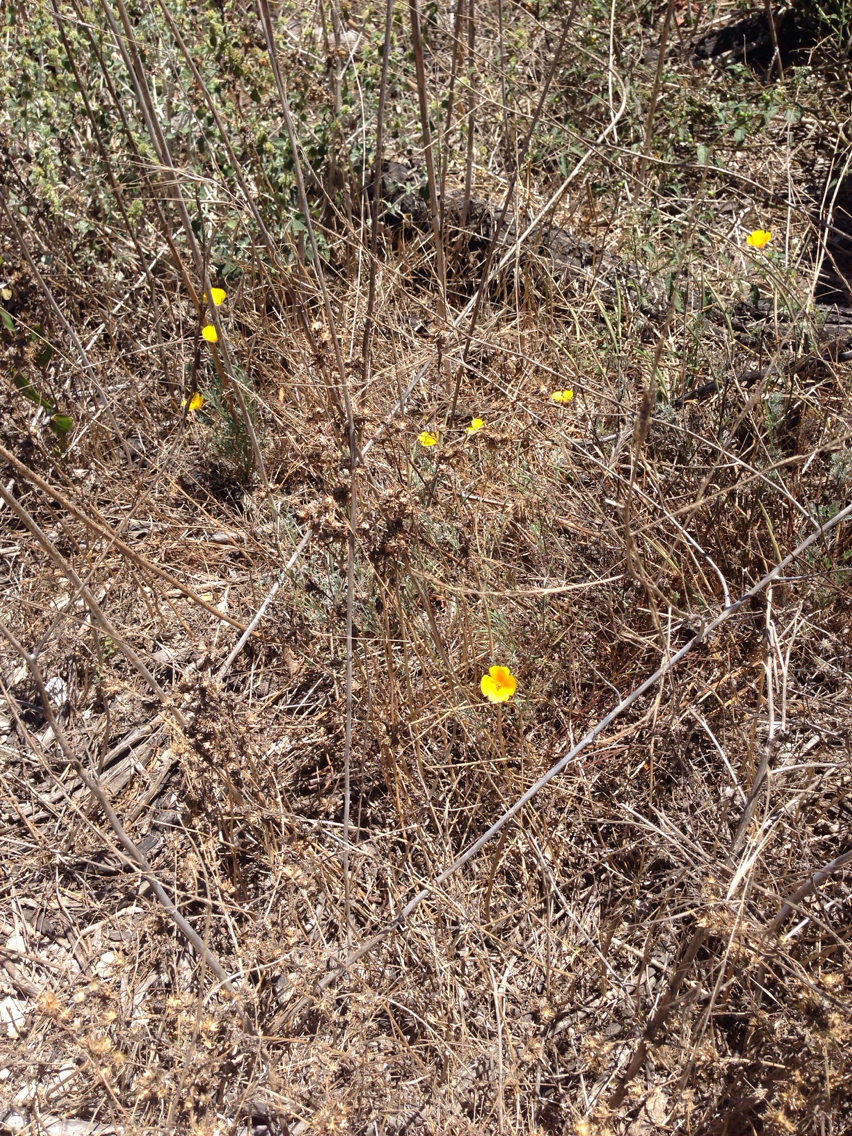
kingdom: Plantae
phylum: Tracheophyta
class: Magnoliopsida
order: Ranunculales
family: Papaveraceae
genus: Eschscholzia
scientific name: Eschscholzia californica
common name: California poppy
